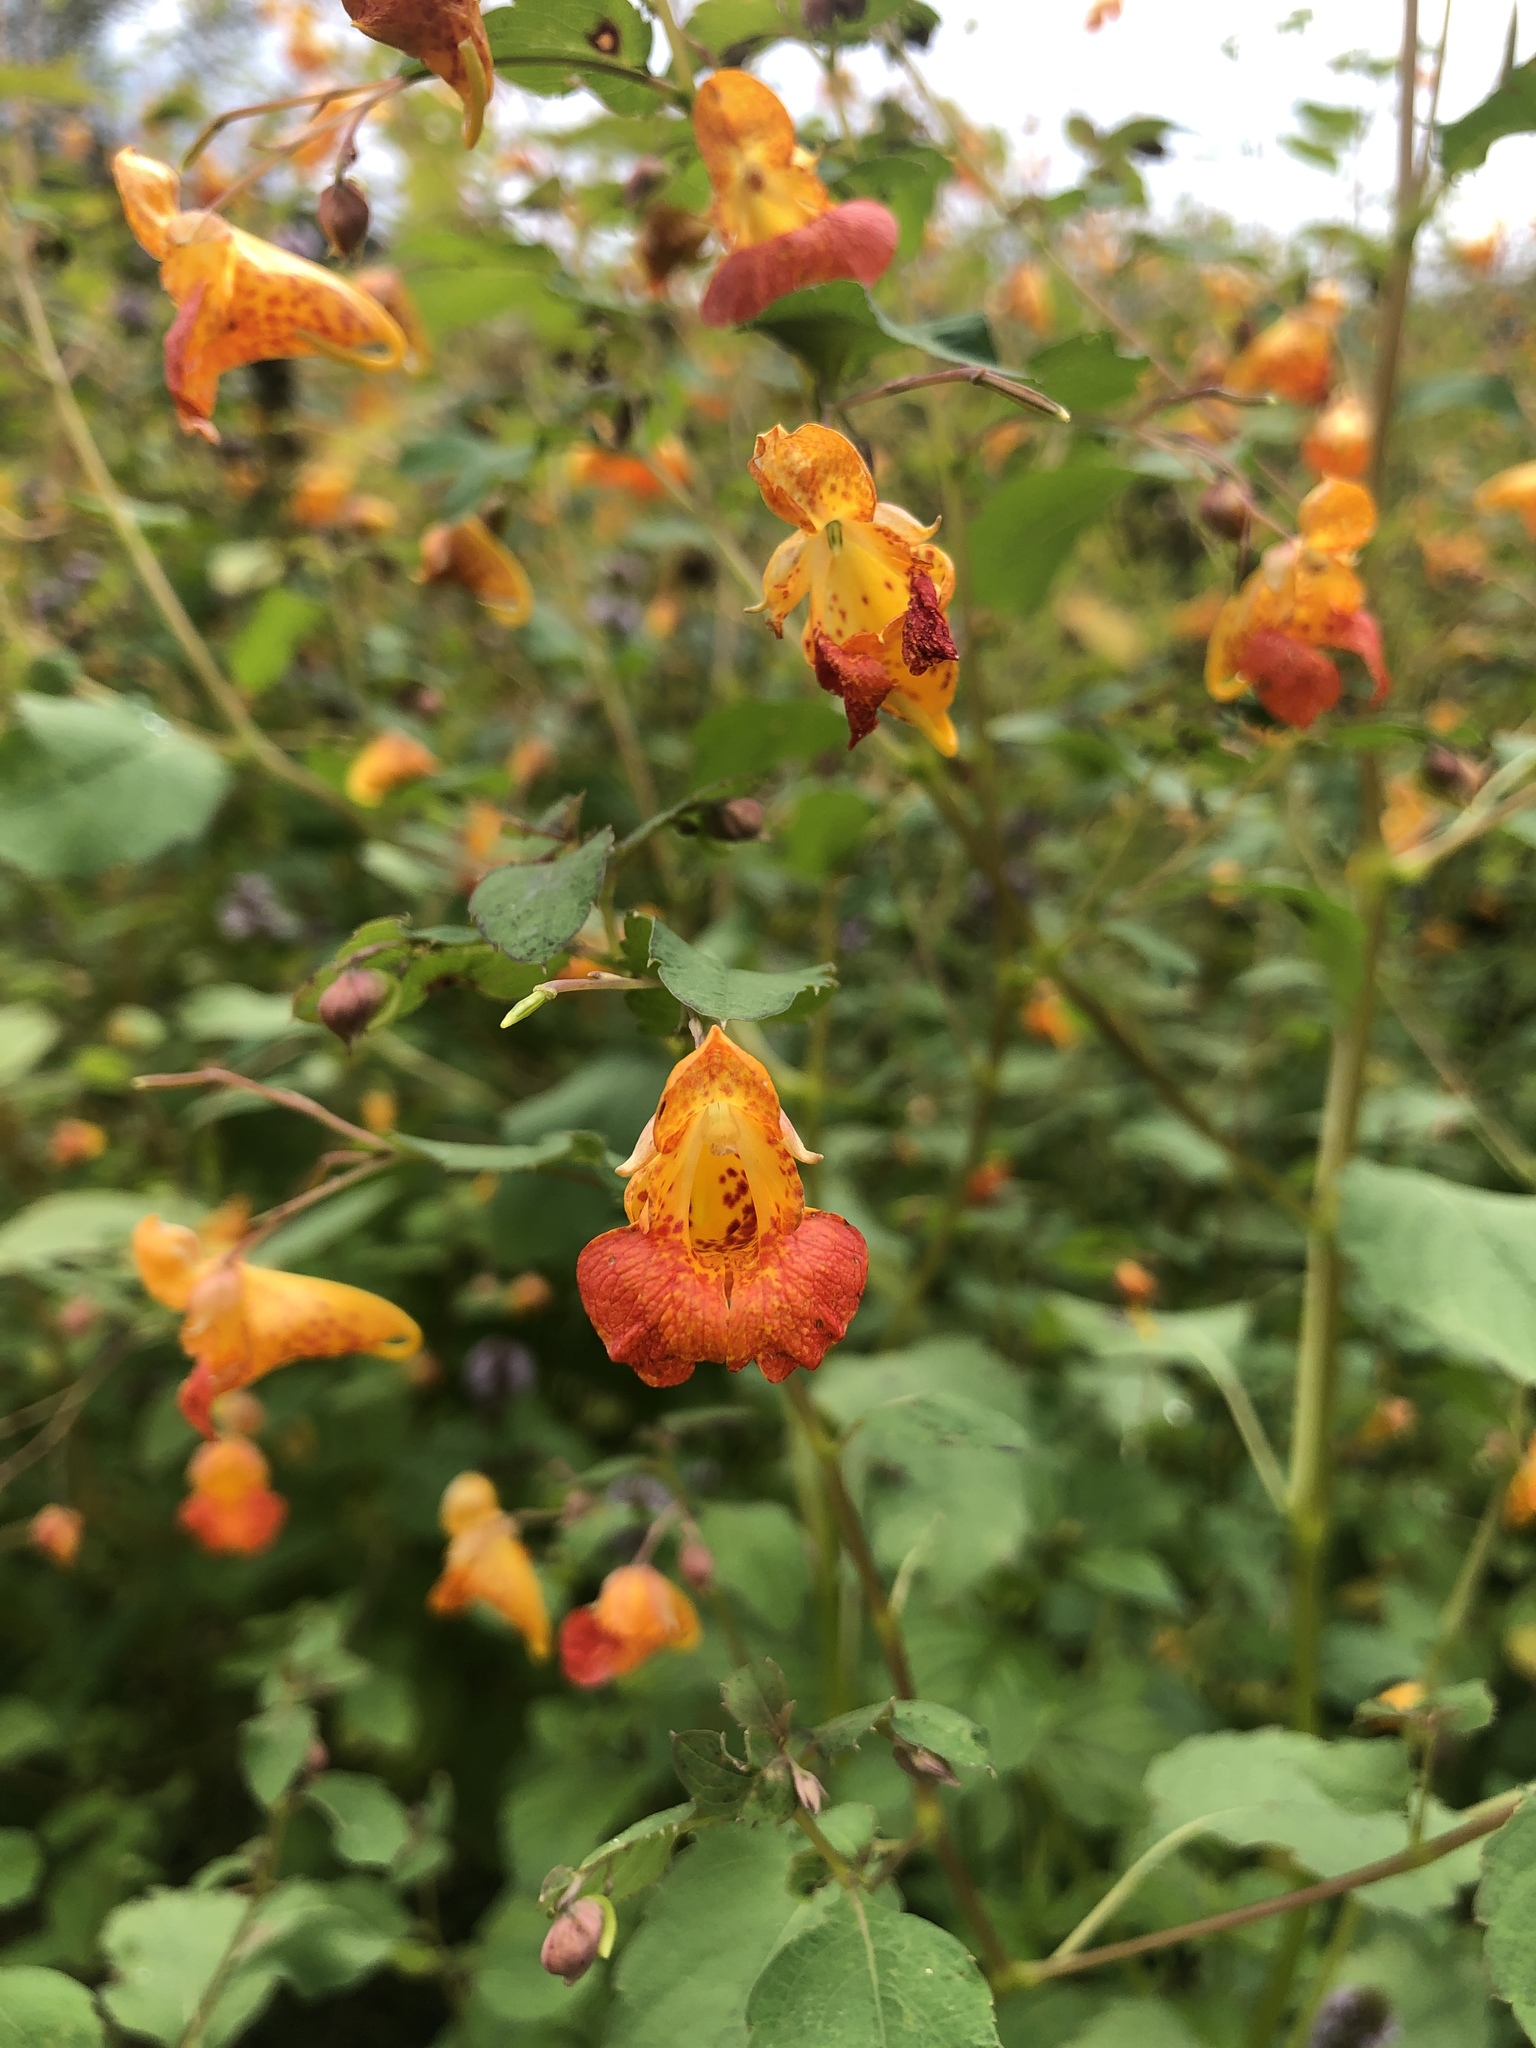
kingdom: Plantae
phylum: Tracheophyta
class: Magnoliopsida
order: Ericales
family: Balsaminaceae
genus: Impatiens
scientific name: Impatiens capensis
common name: Orange balsam
